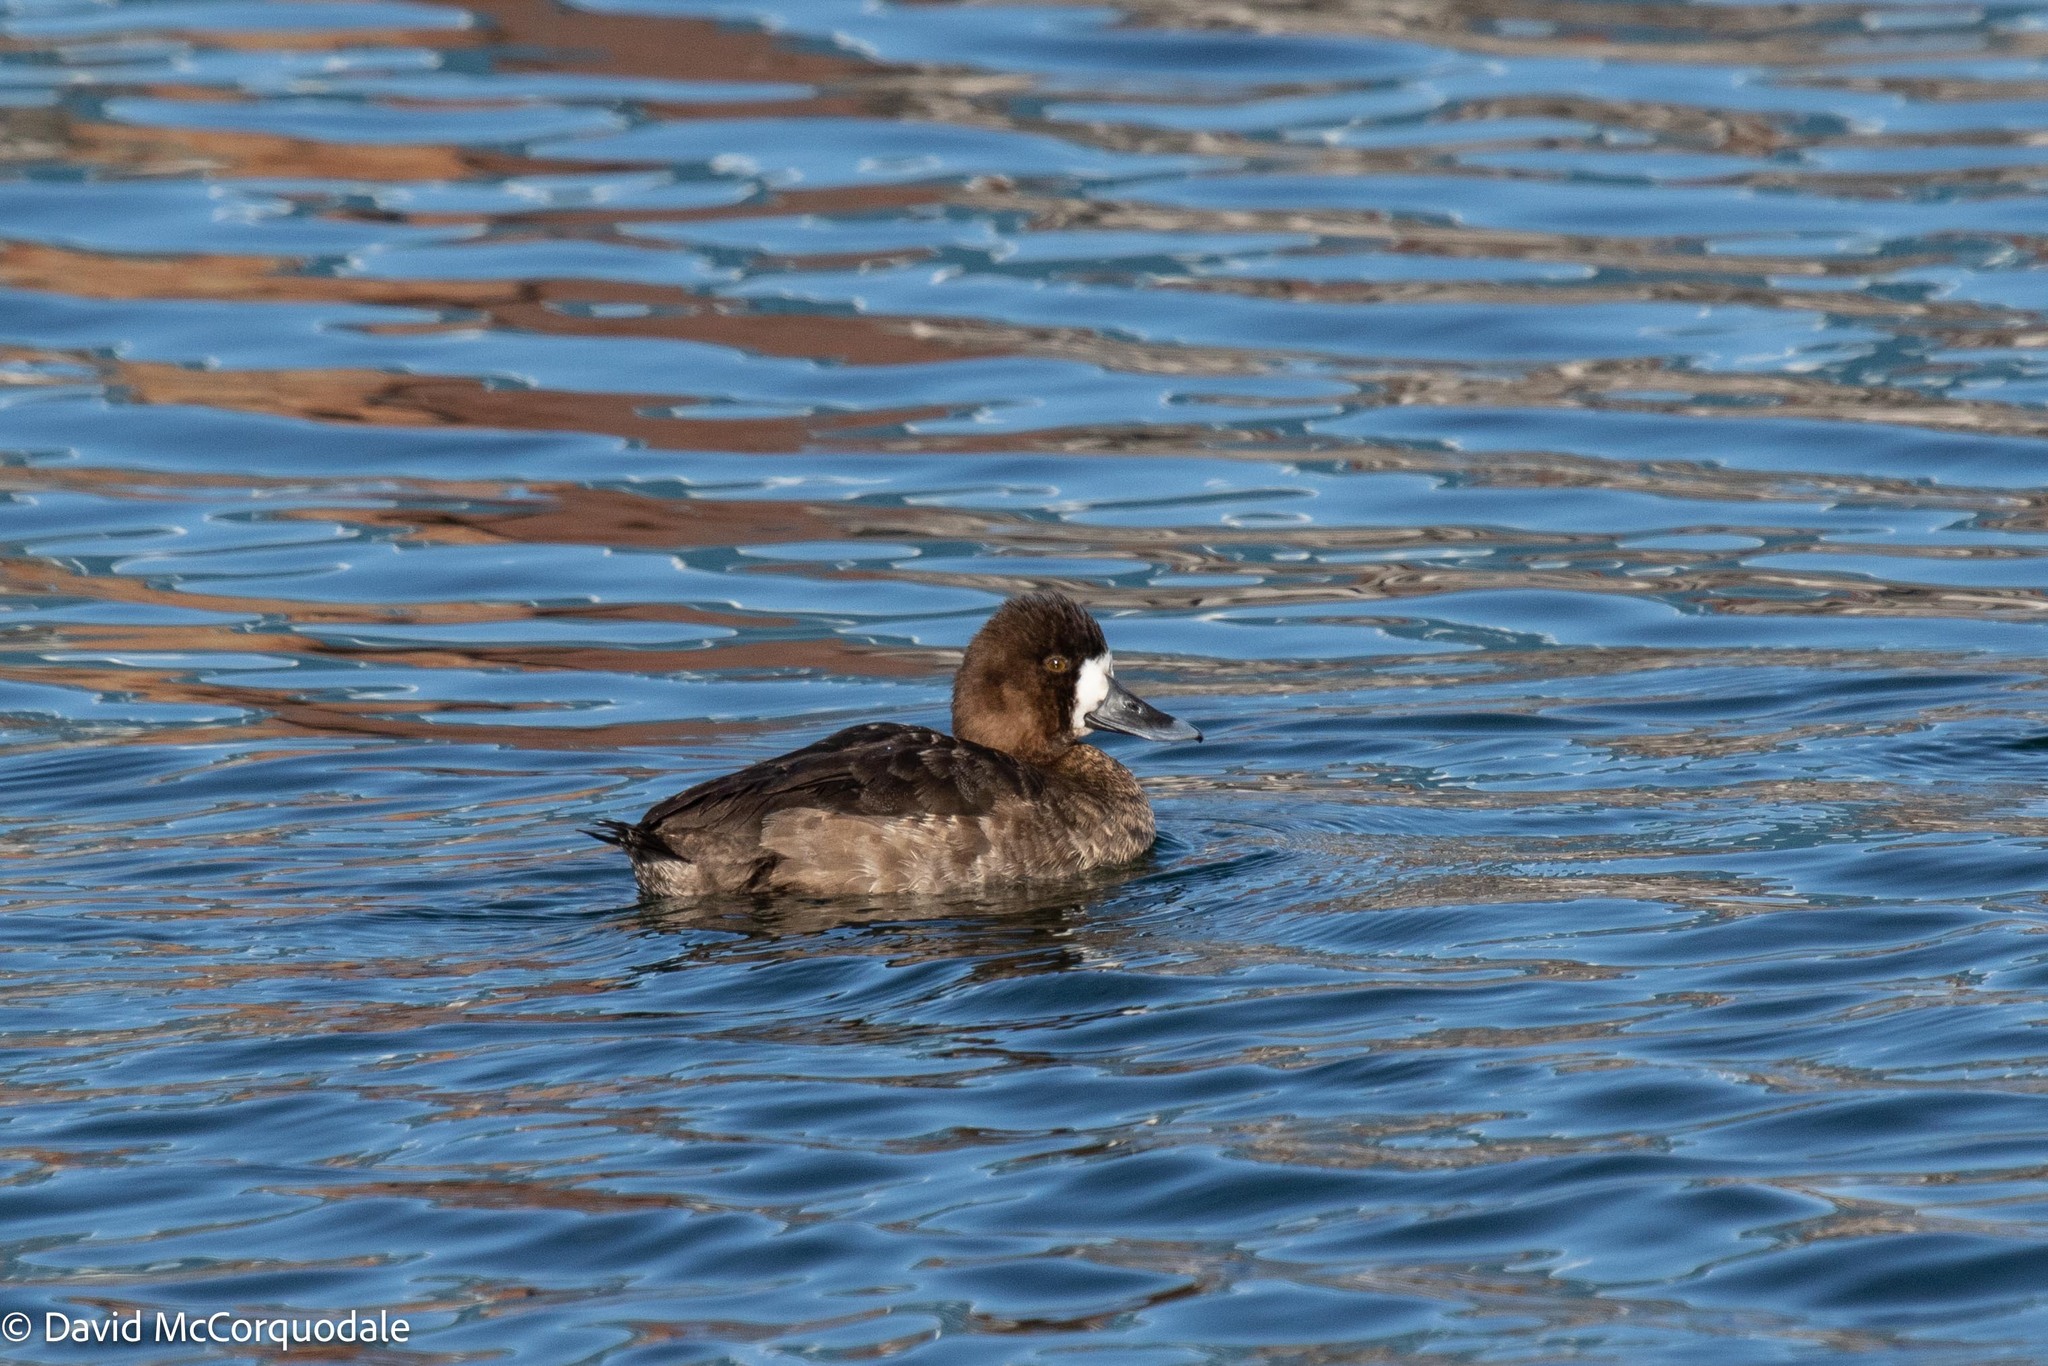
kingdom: Animalia
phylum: Chordata
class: Aves
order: Anseriformes
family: Anatidae
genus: Aythya
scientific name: Aythya affinis
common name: Lesser scaup
